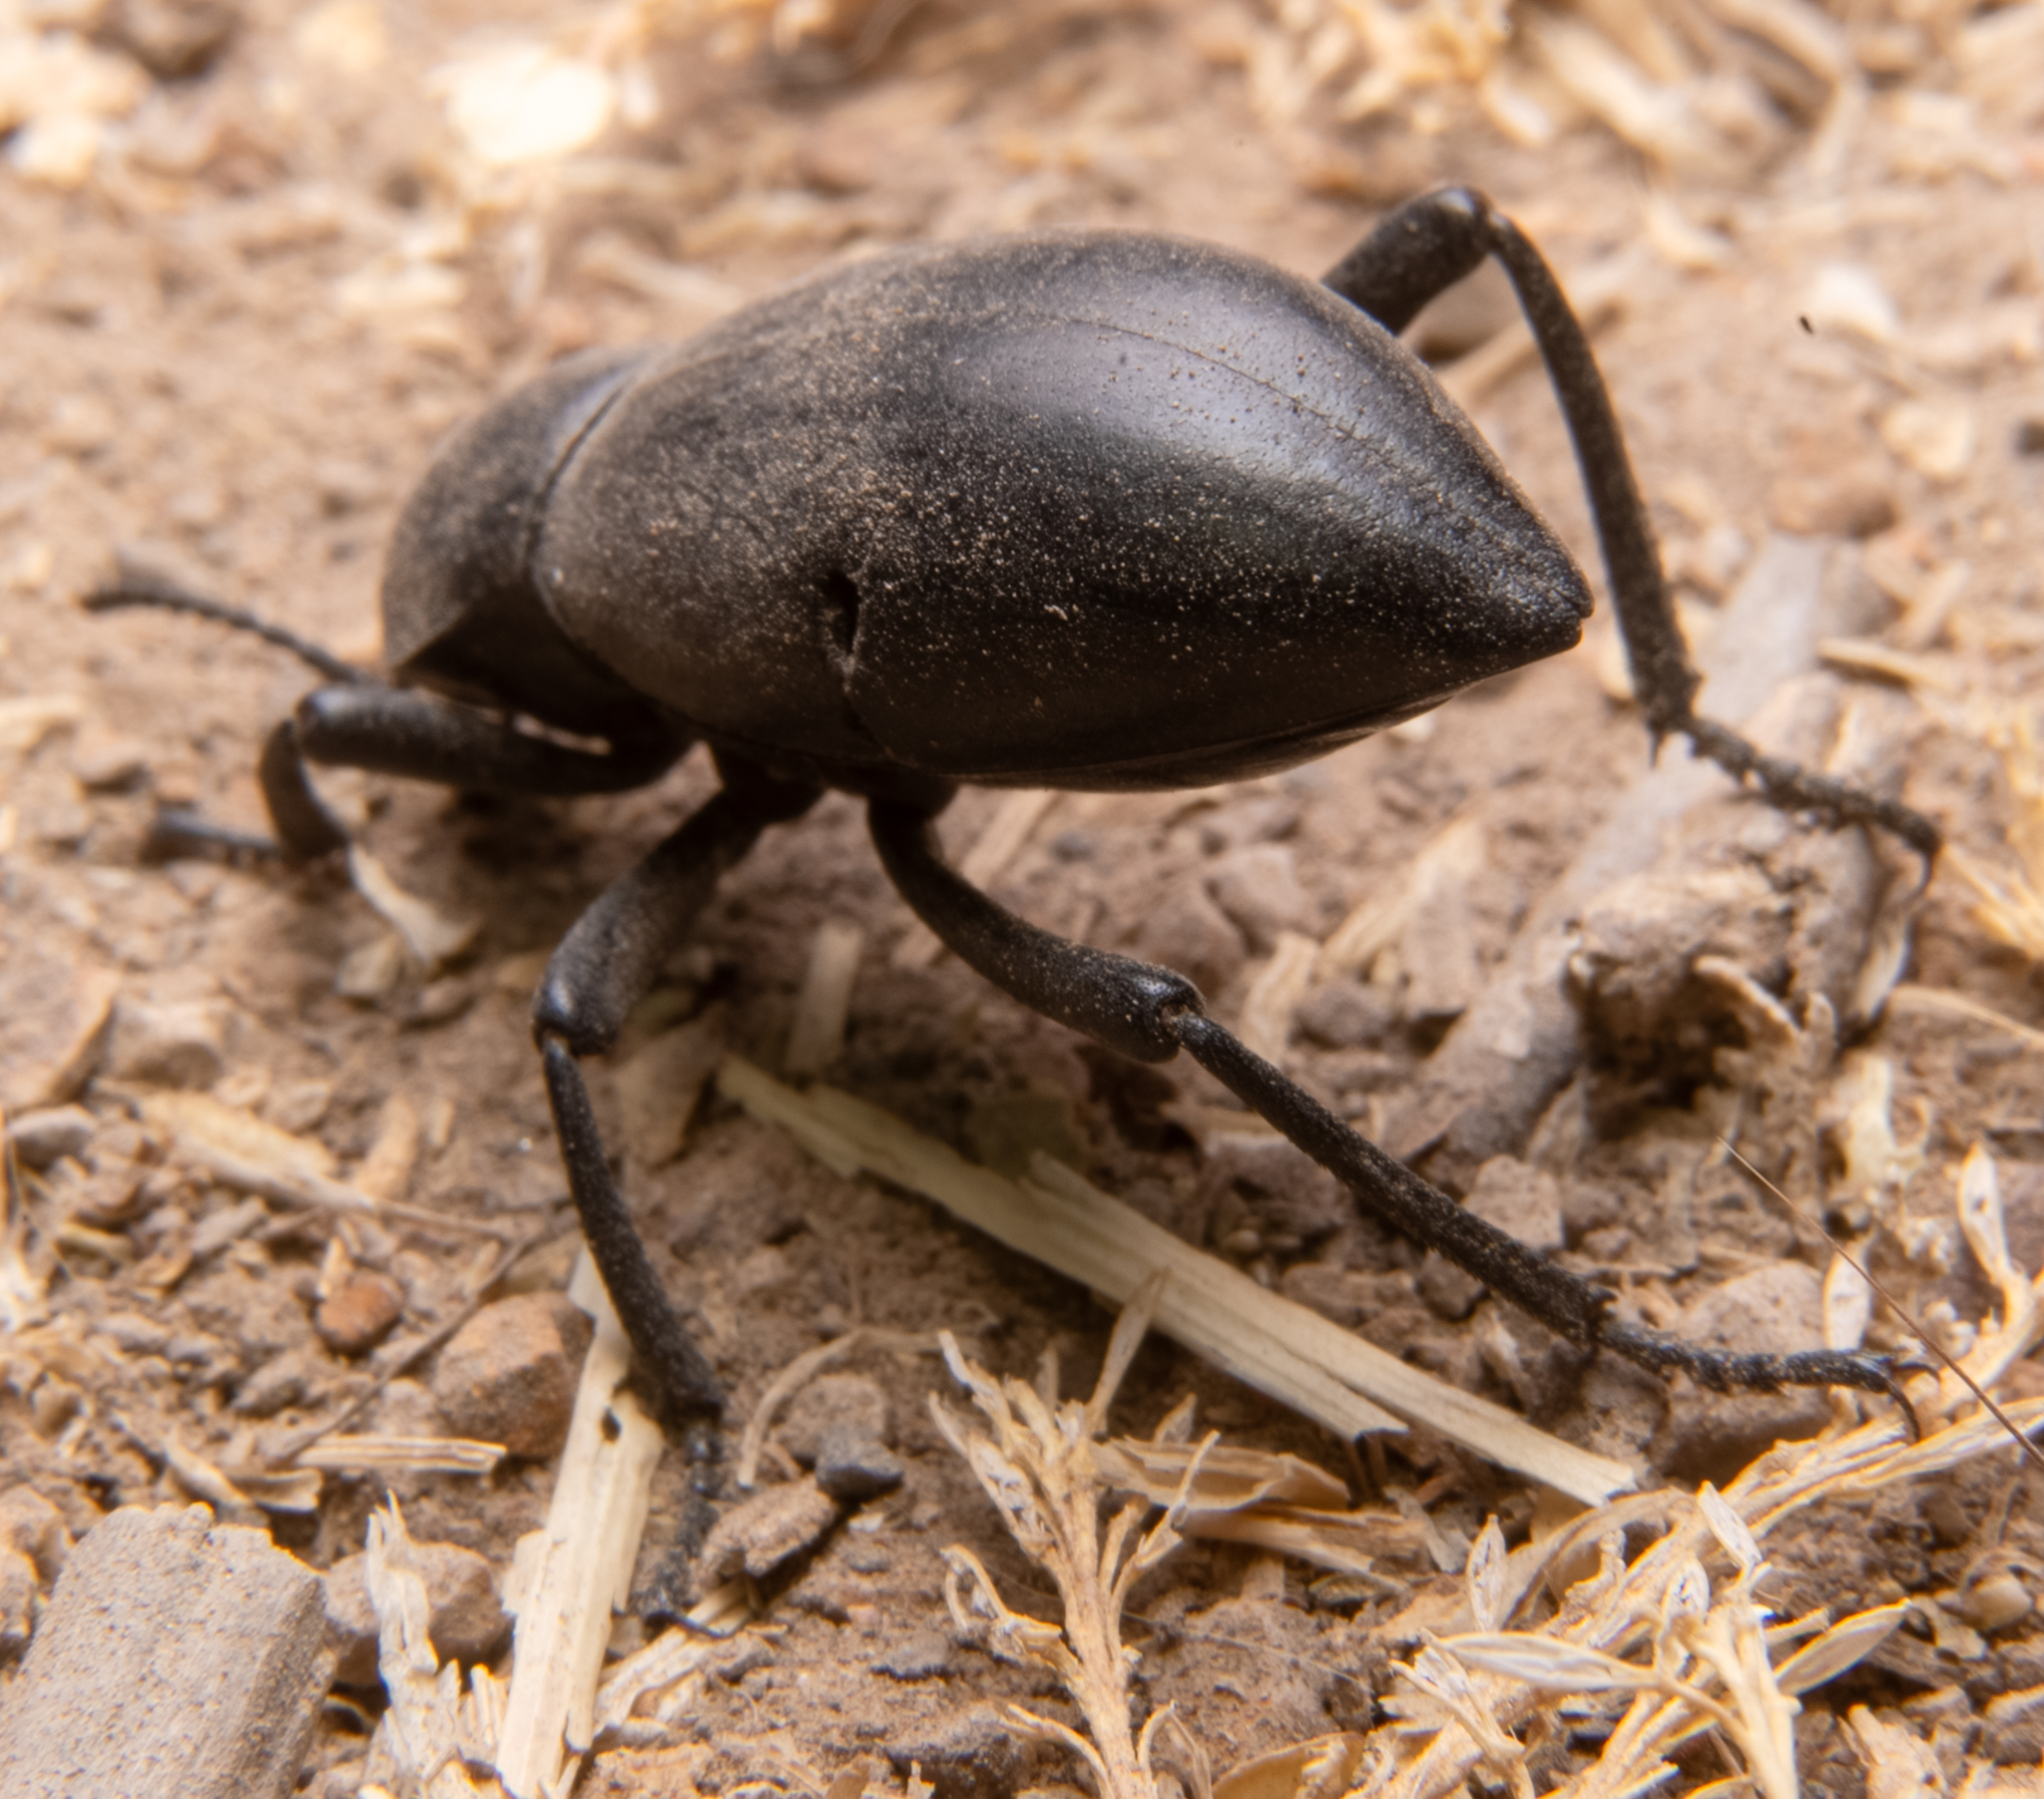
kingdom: Animalia
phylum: Arthropoda
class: Insecta
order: Coleoptera
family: Tenebrionidae
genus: Eleodes
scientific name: Eleodes dentipes
